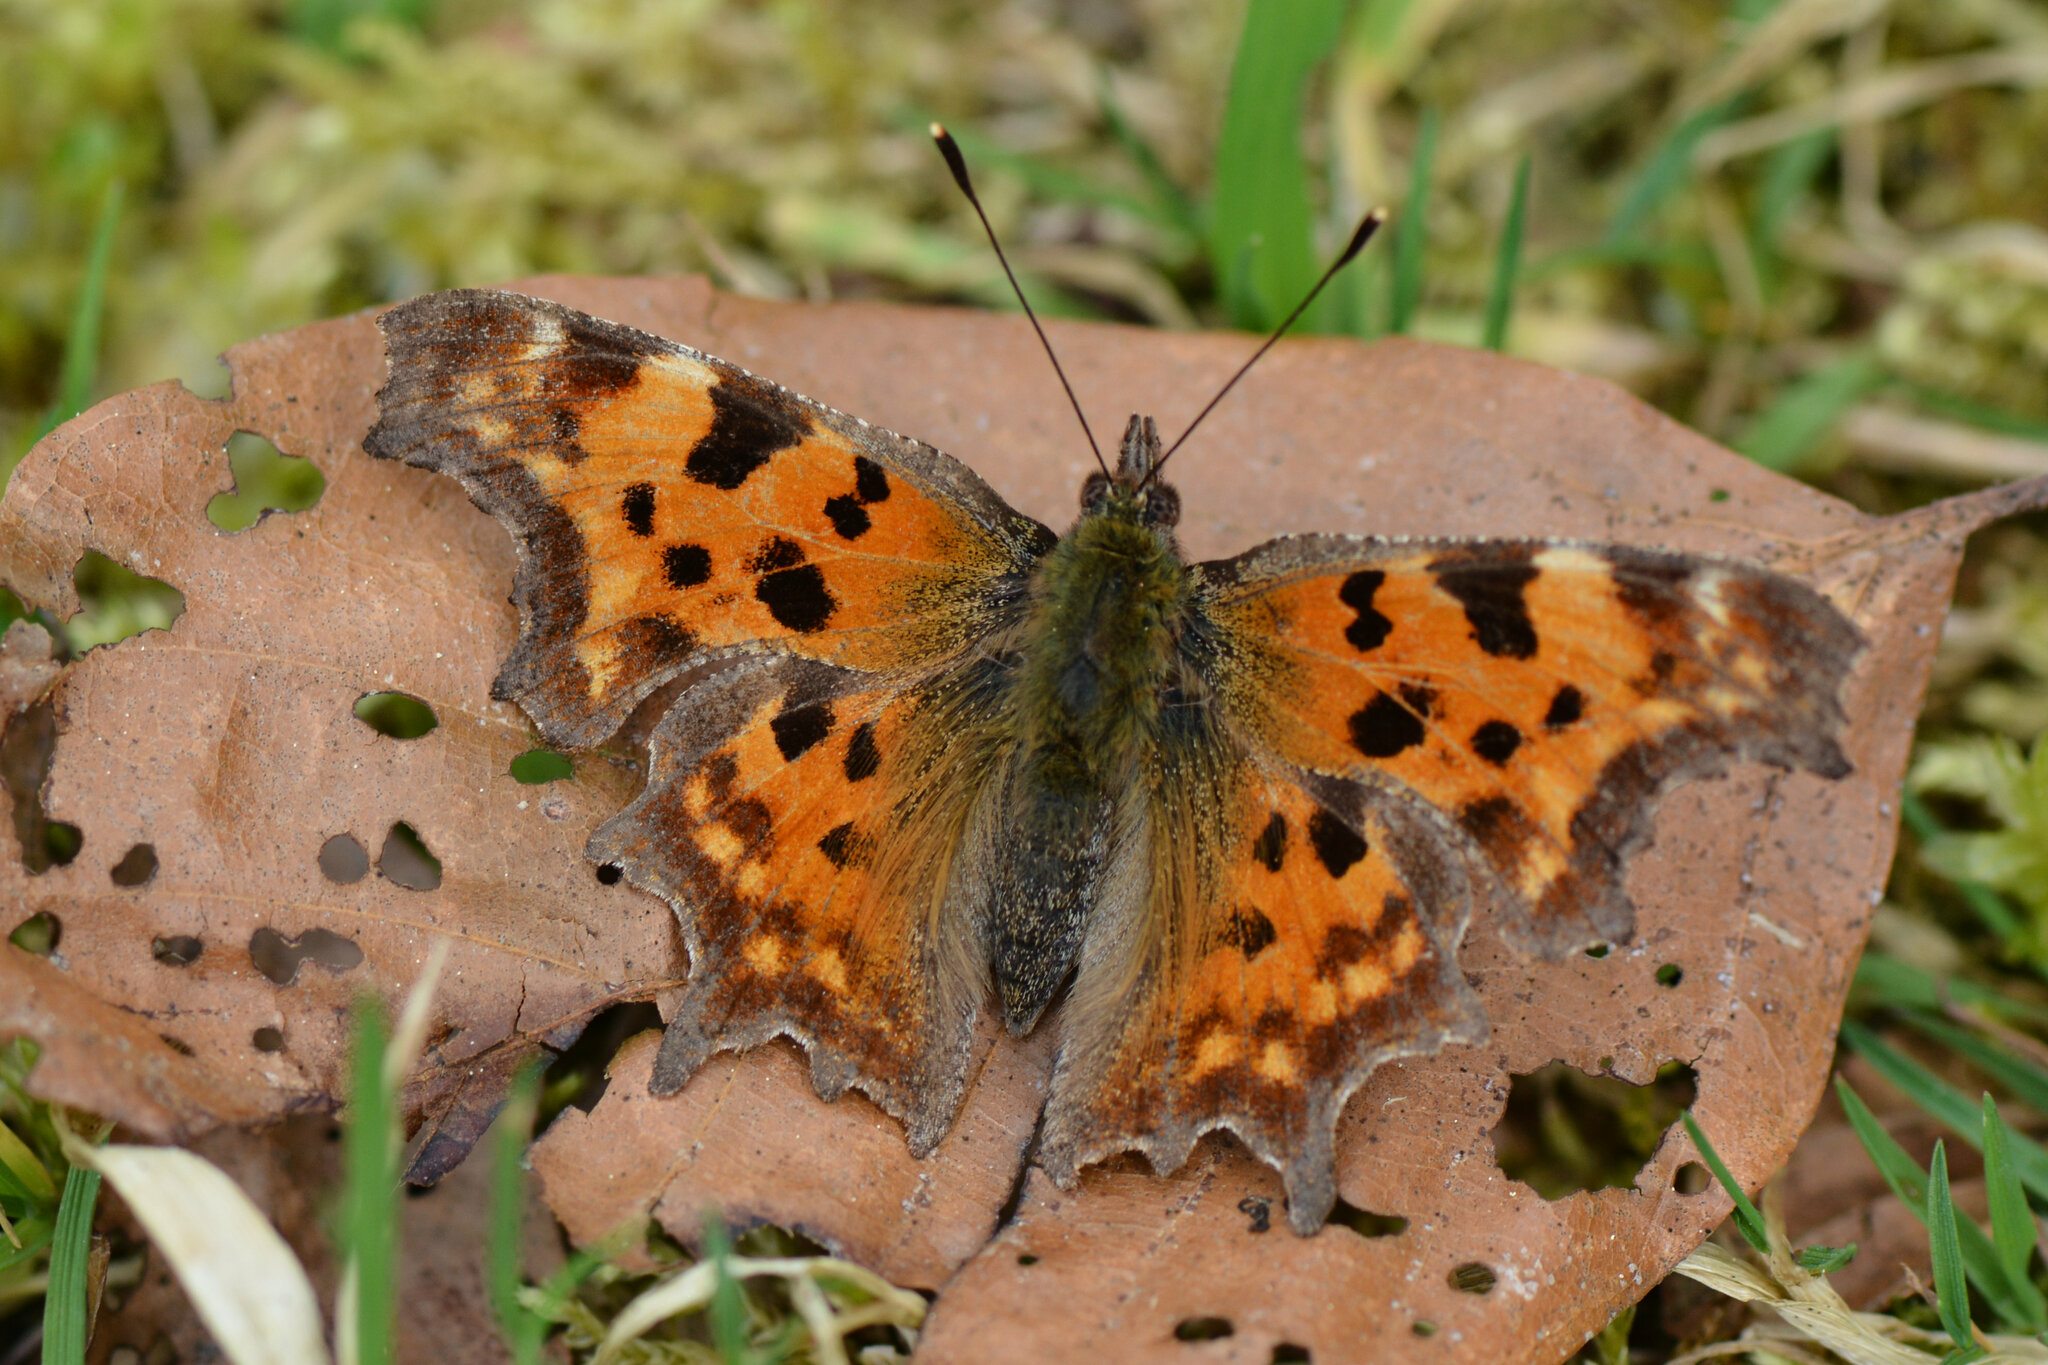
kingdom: Animalia
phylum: Arthropoda
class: Insecta
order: Lepidoptera
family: Nymphalidae
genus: Polygonia
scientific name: Polygonia c-album
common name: Comma
